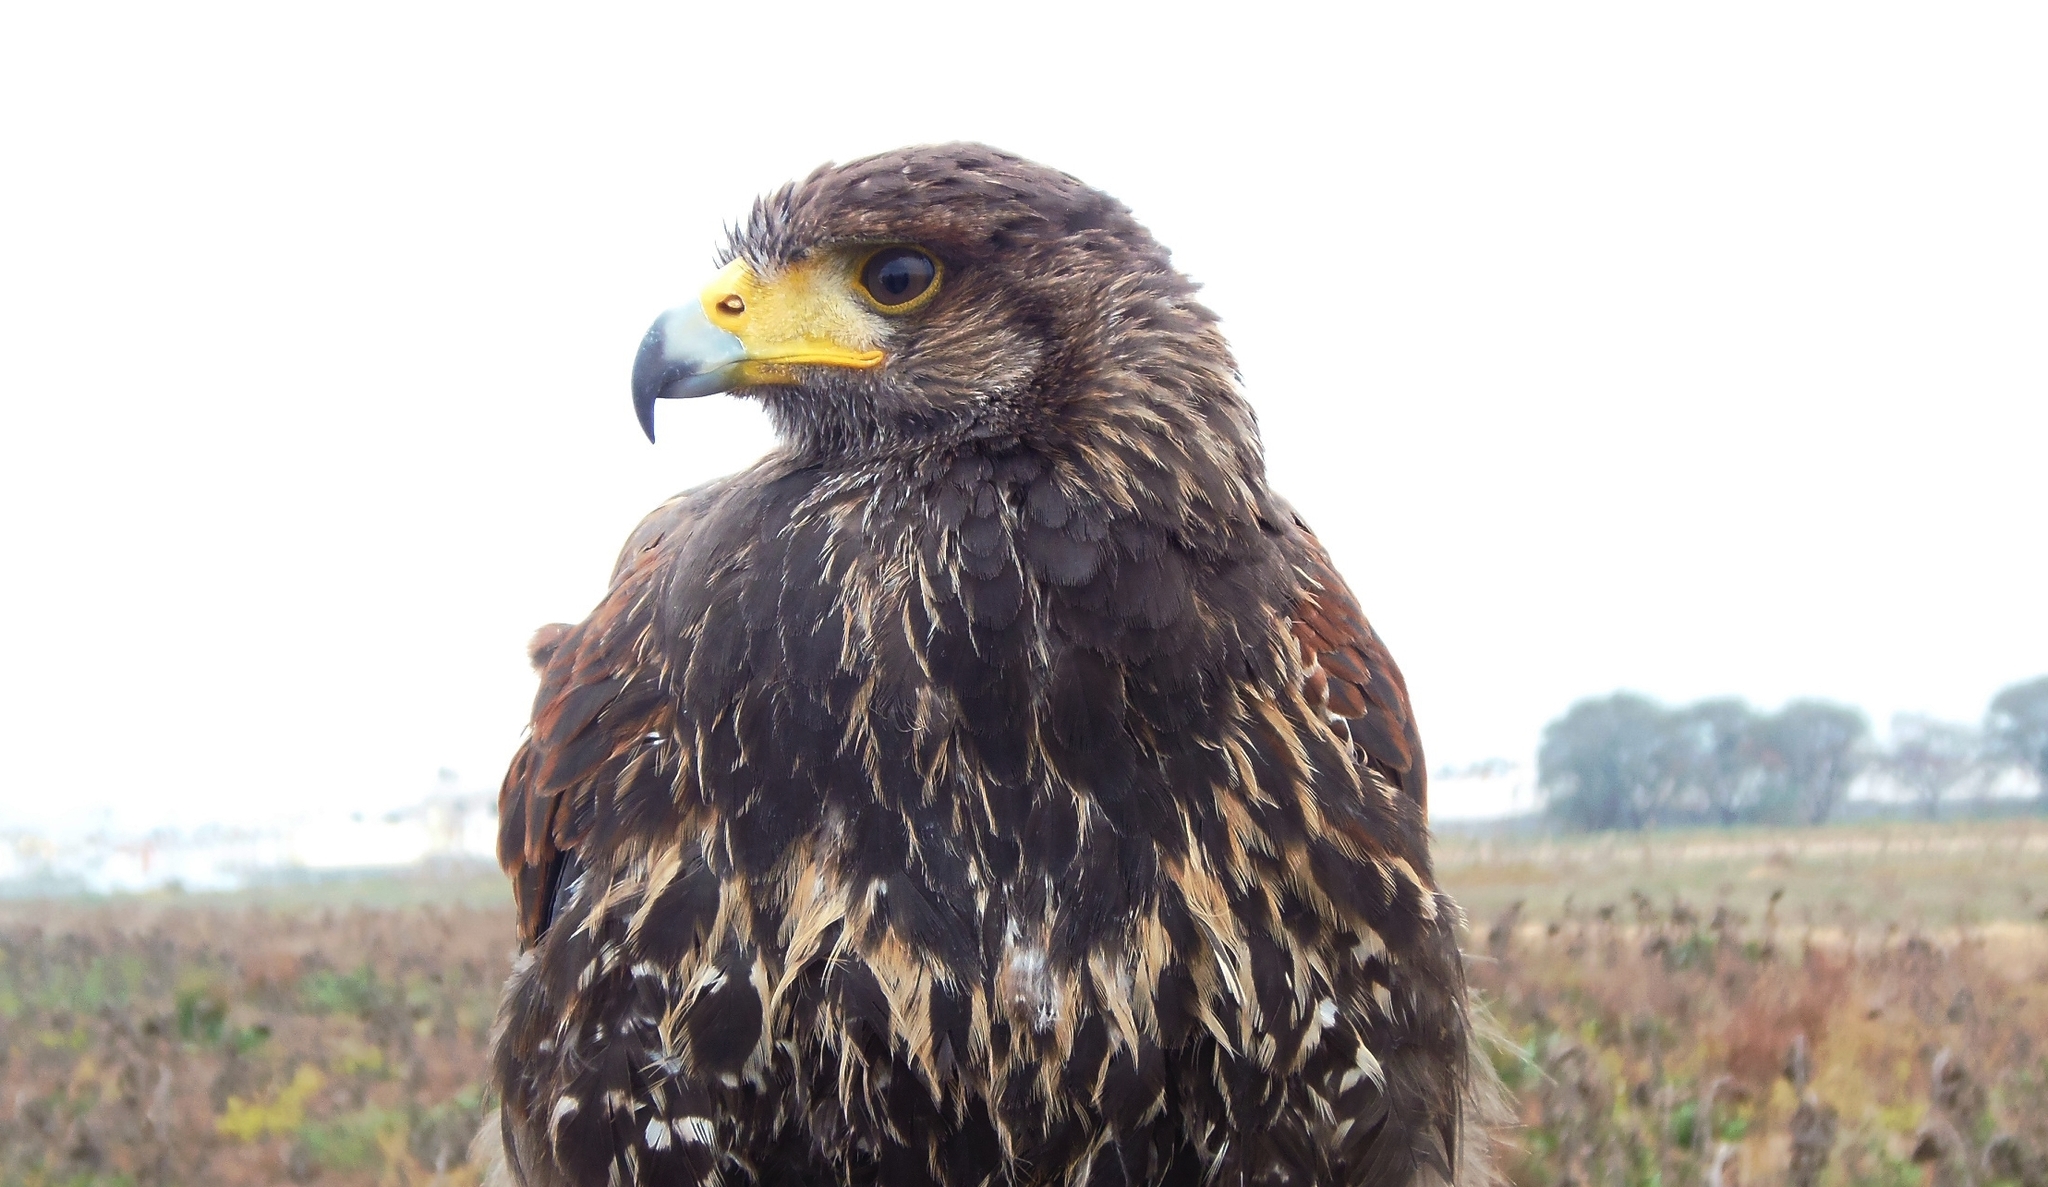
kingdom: Animalia
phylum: Chordata
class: Aves
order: Accipitriformes
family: Accipitridae
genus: Parabuteo
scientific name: Parabuteo unicinctus
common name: Harris's hawk
